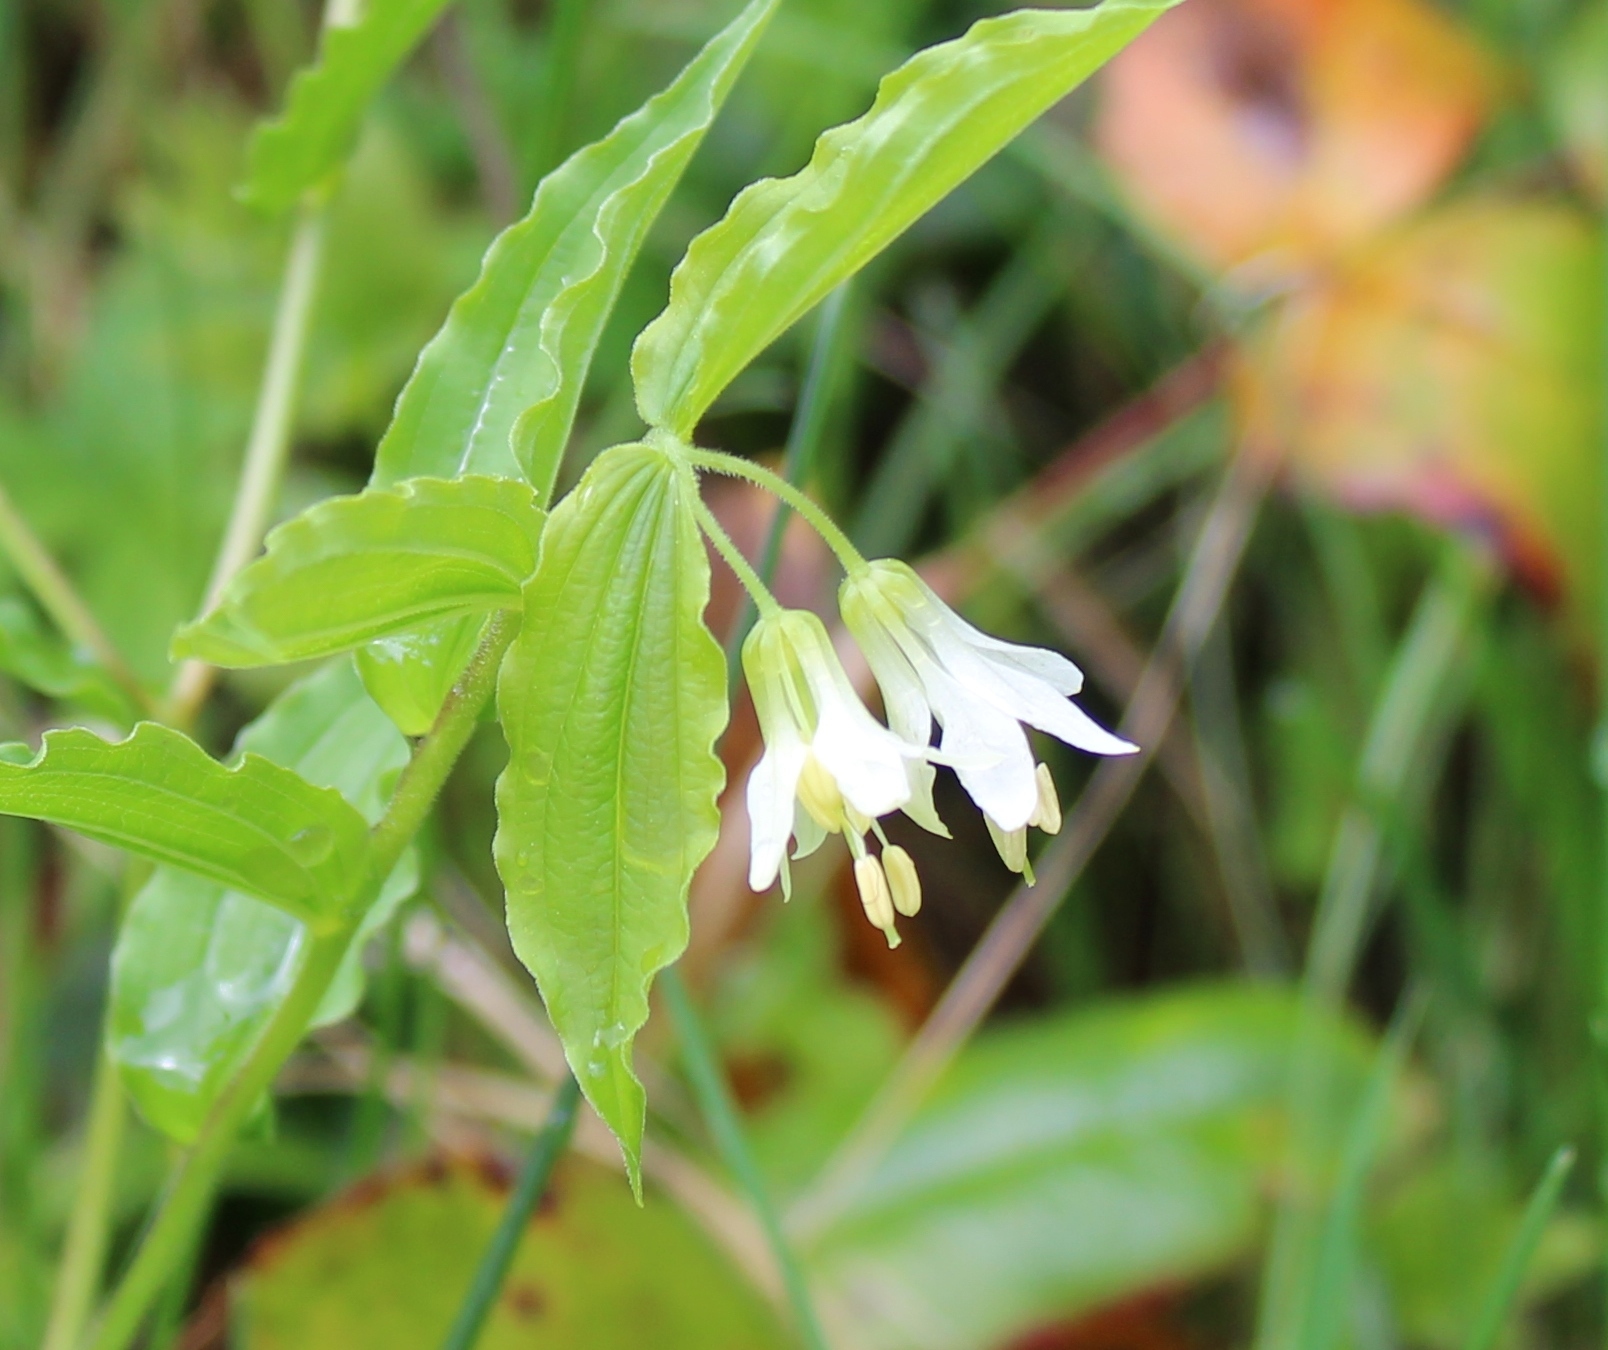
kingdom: Plantae
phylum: Tracheophyta
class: Liliopsida
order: Liliales
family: Liliaceae
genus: Prosartes
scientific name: Prosartes hookeri
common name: Fairy-bells
